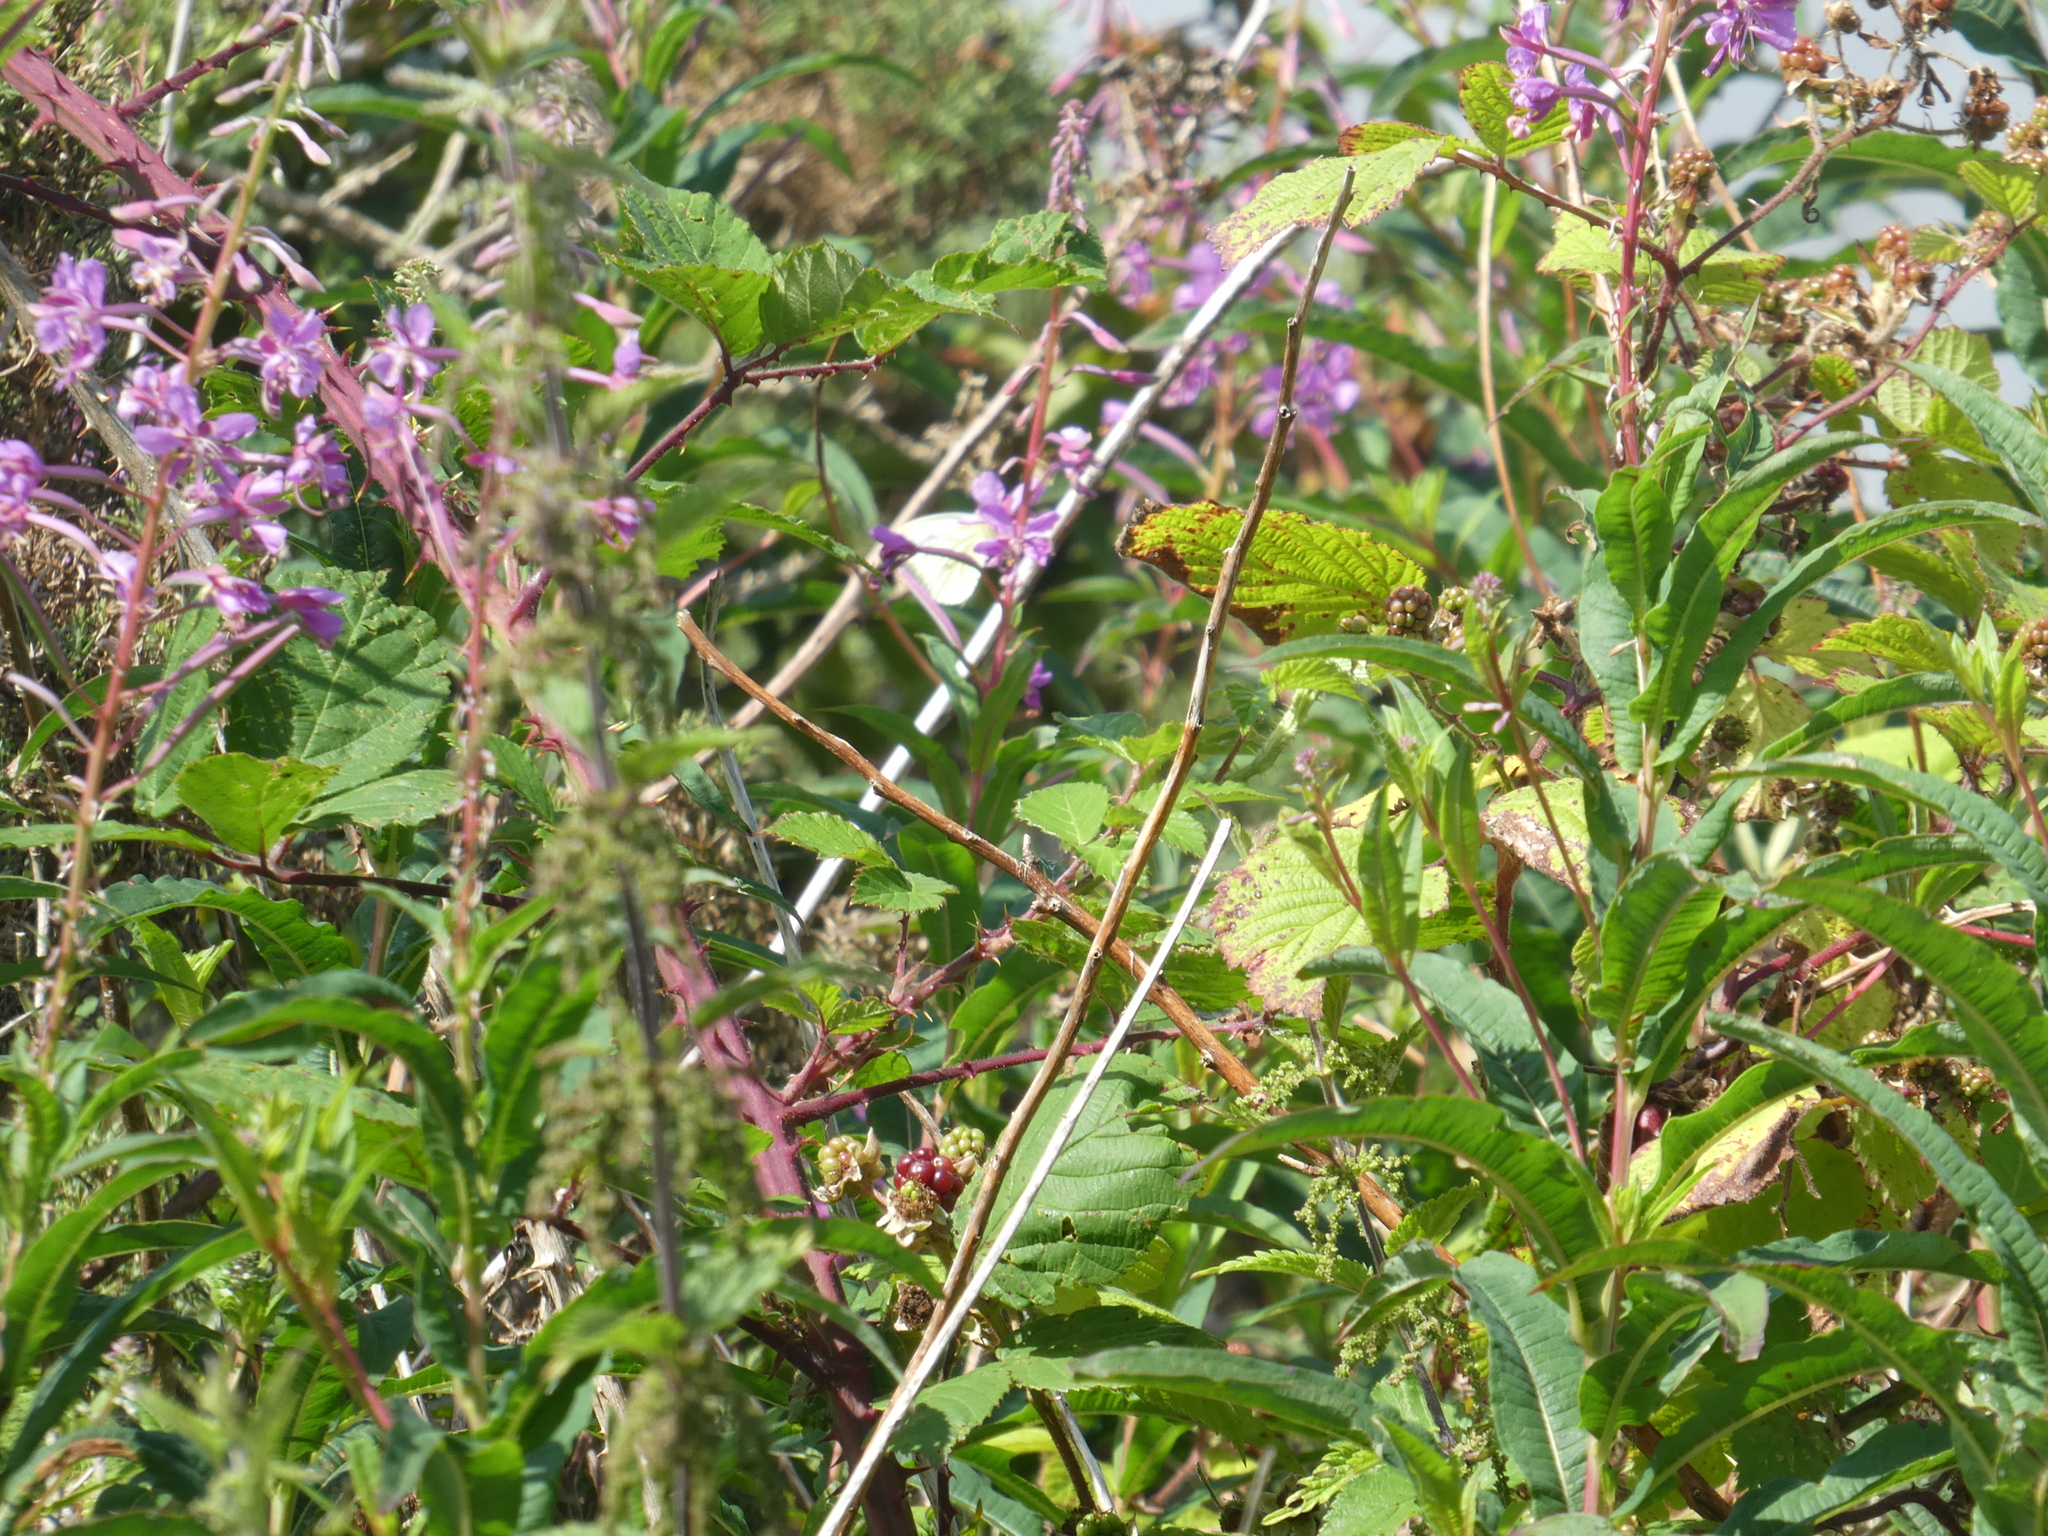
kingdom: Plantae
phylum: Tracheophyta
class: Magnoliopsida
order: Myrtales
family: Onagraceae
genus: Chamaenerion
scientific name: Chamaenerion angustifolium
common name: Fireweed
